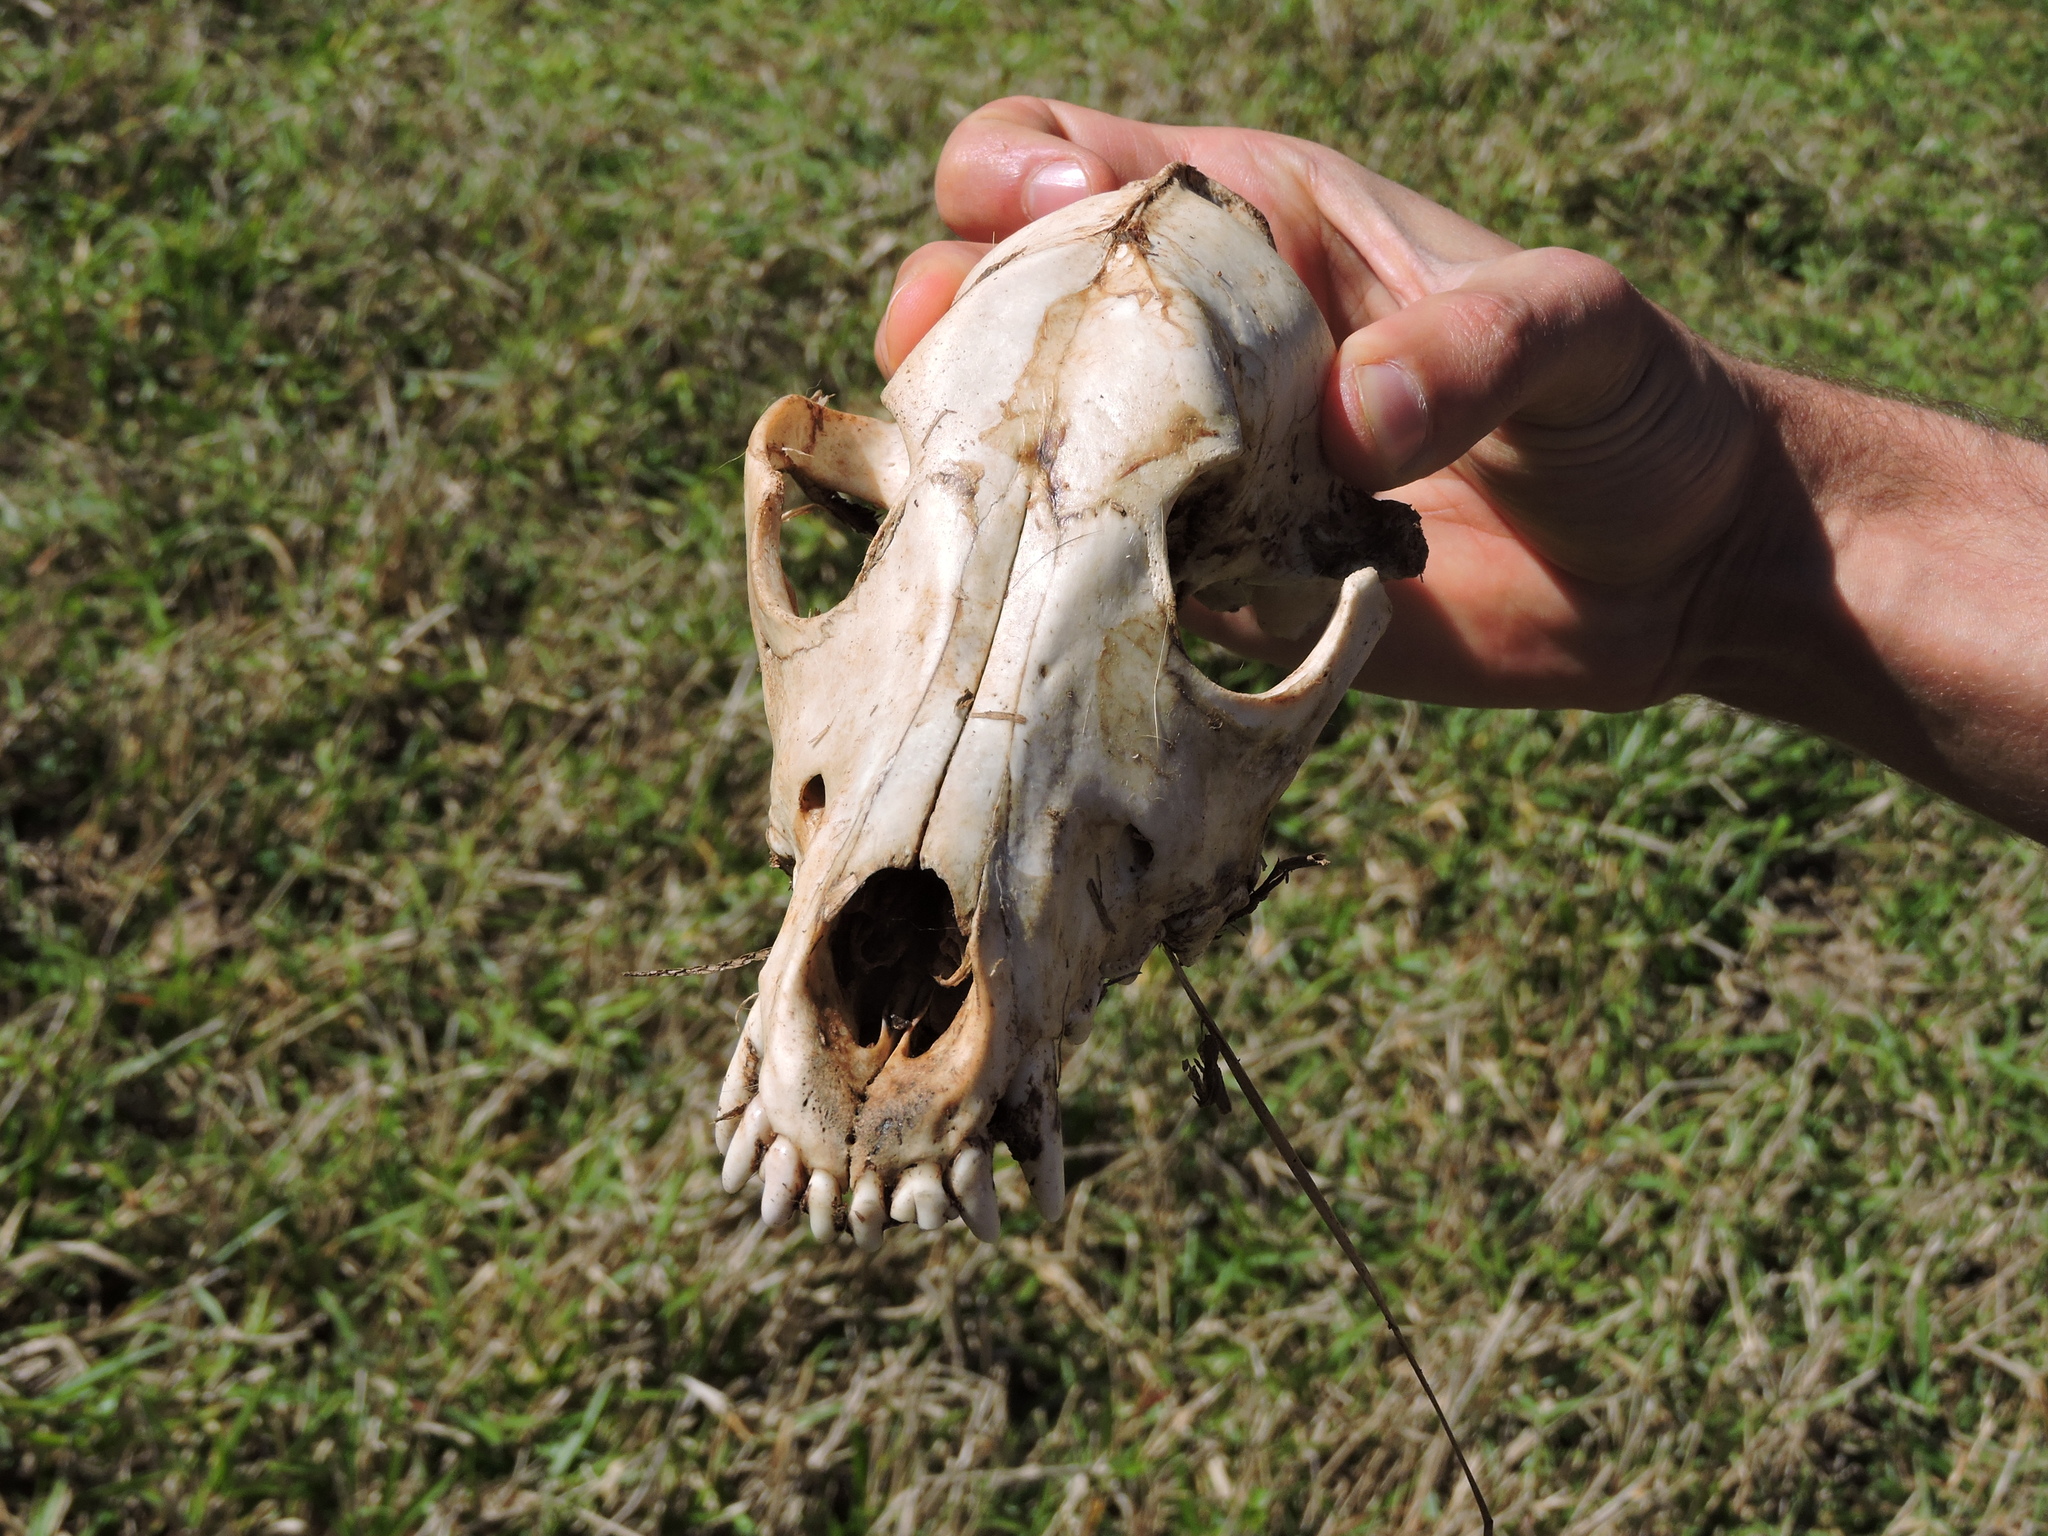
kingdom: Animalia
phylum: Chordata
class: Mammalia
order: Carnivora
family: Canidae
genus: Canis
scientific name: Canis lupus
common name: Gray wolf
